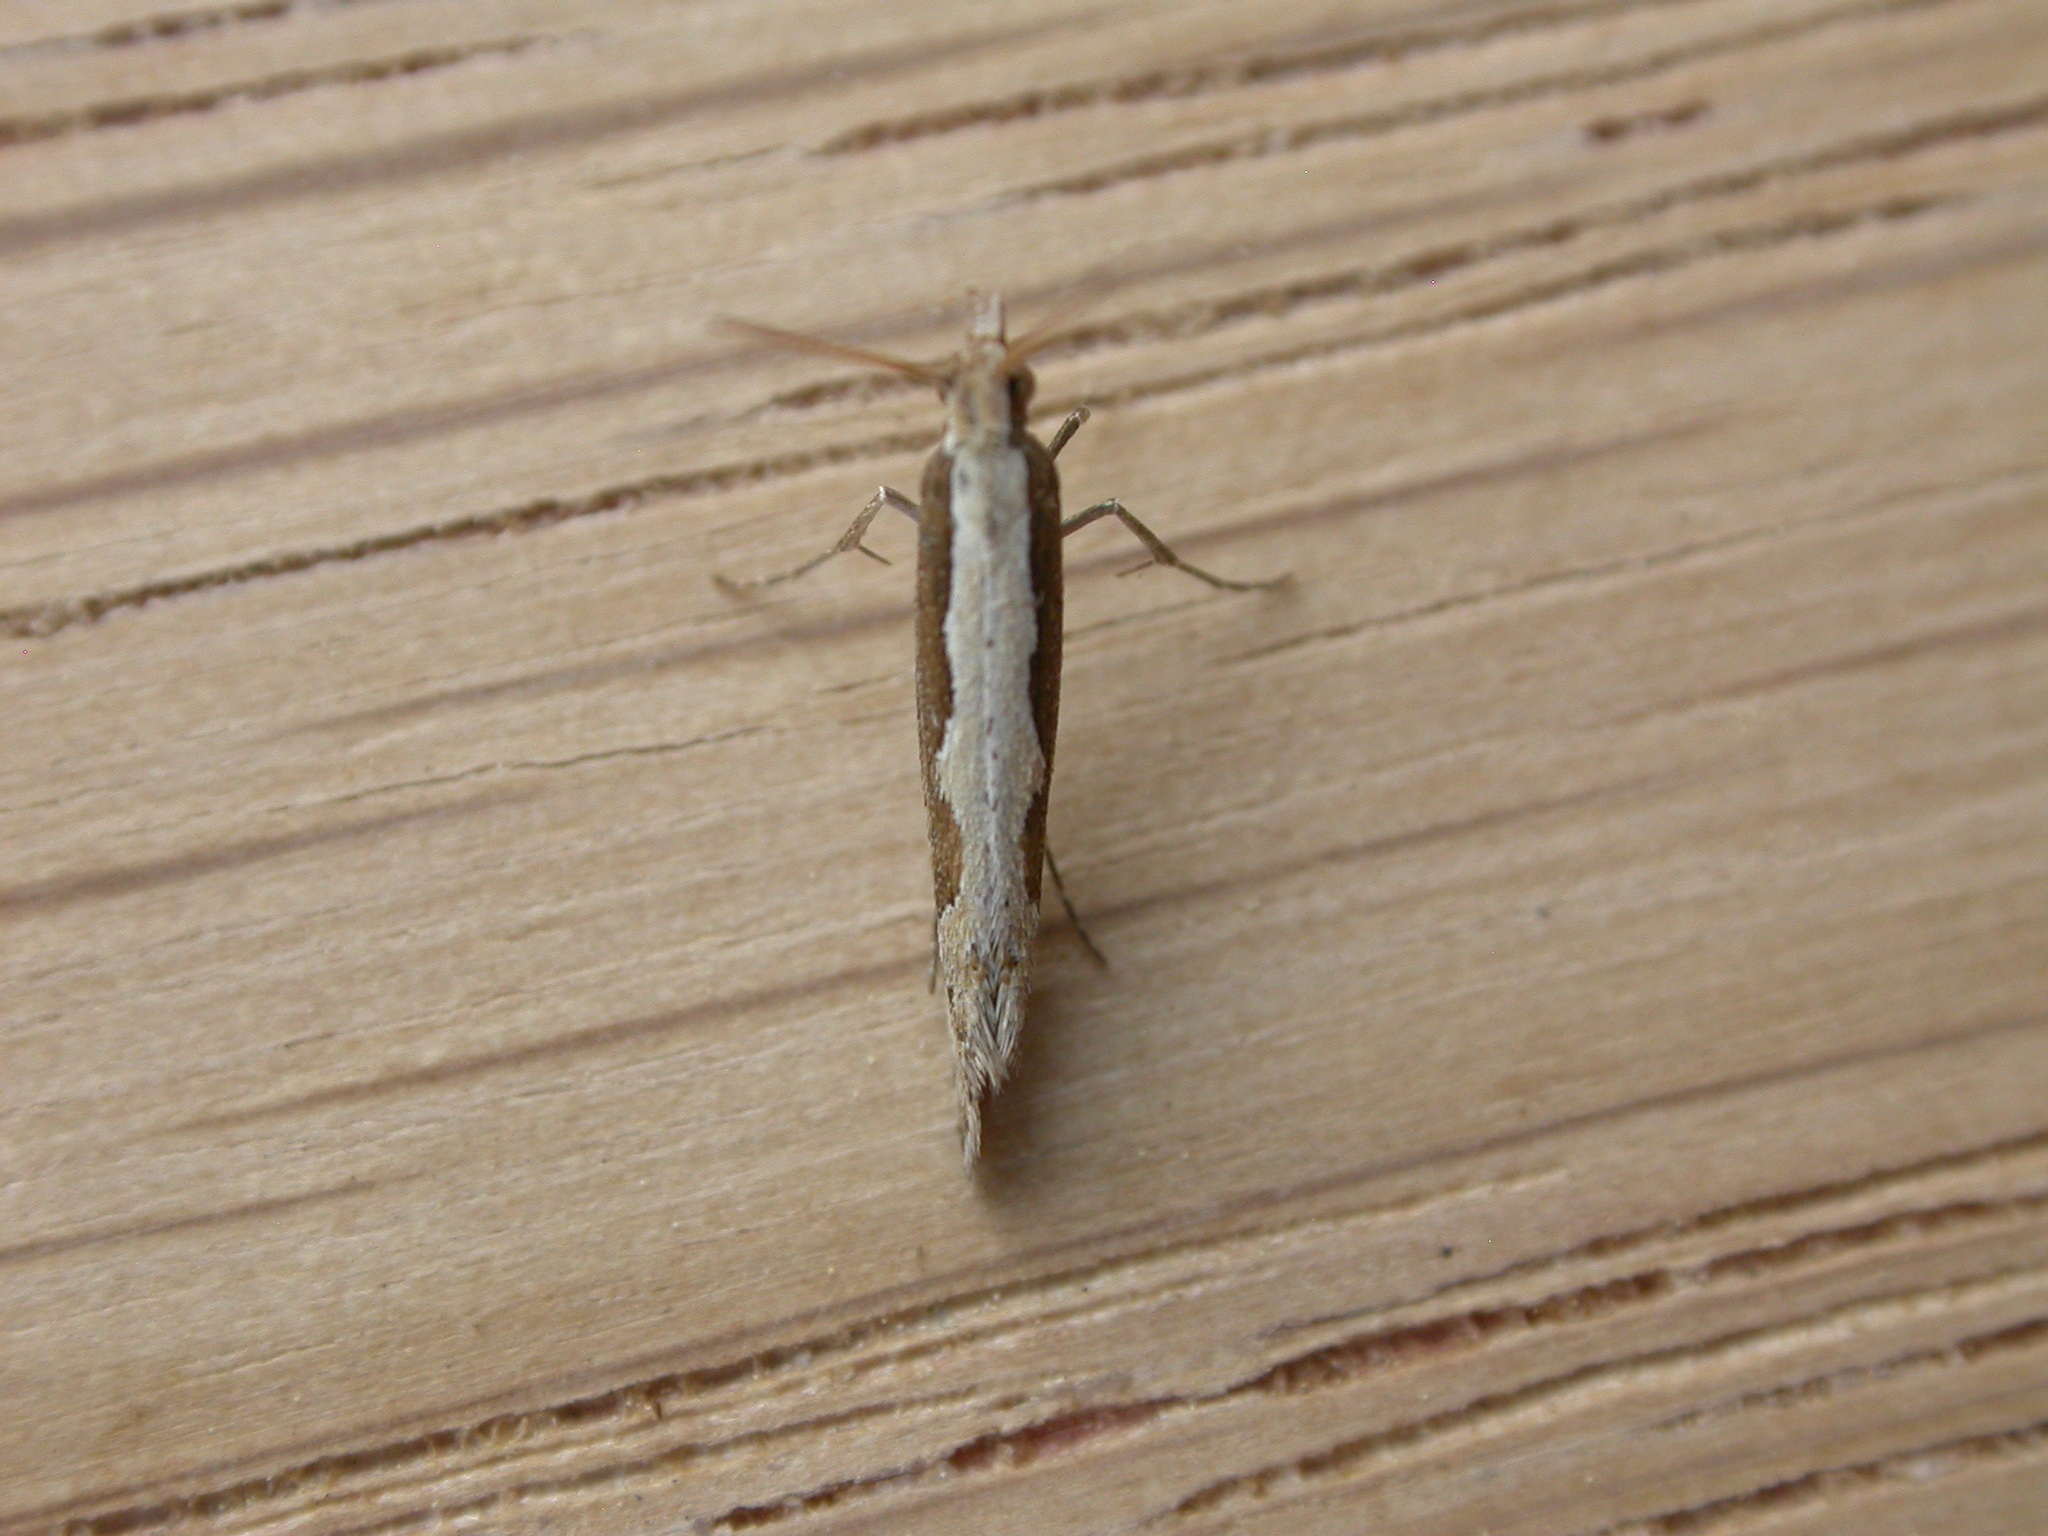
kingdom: Animalia
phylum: Arthropoda
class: Insecta
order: Lepidoptera
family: Plutellidae
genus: Plutella
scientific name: Plutella xylostella
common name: Diamond-back moth
